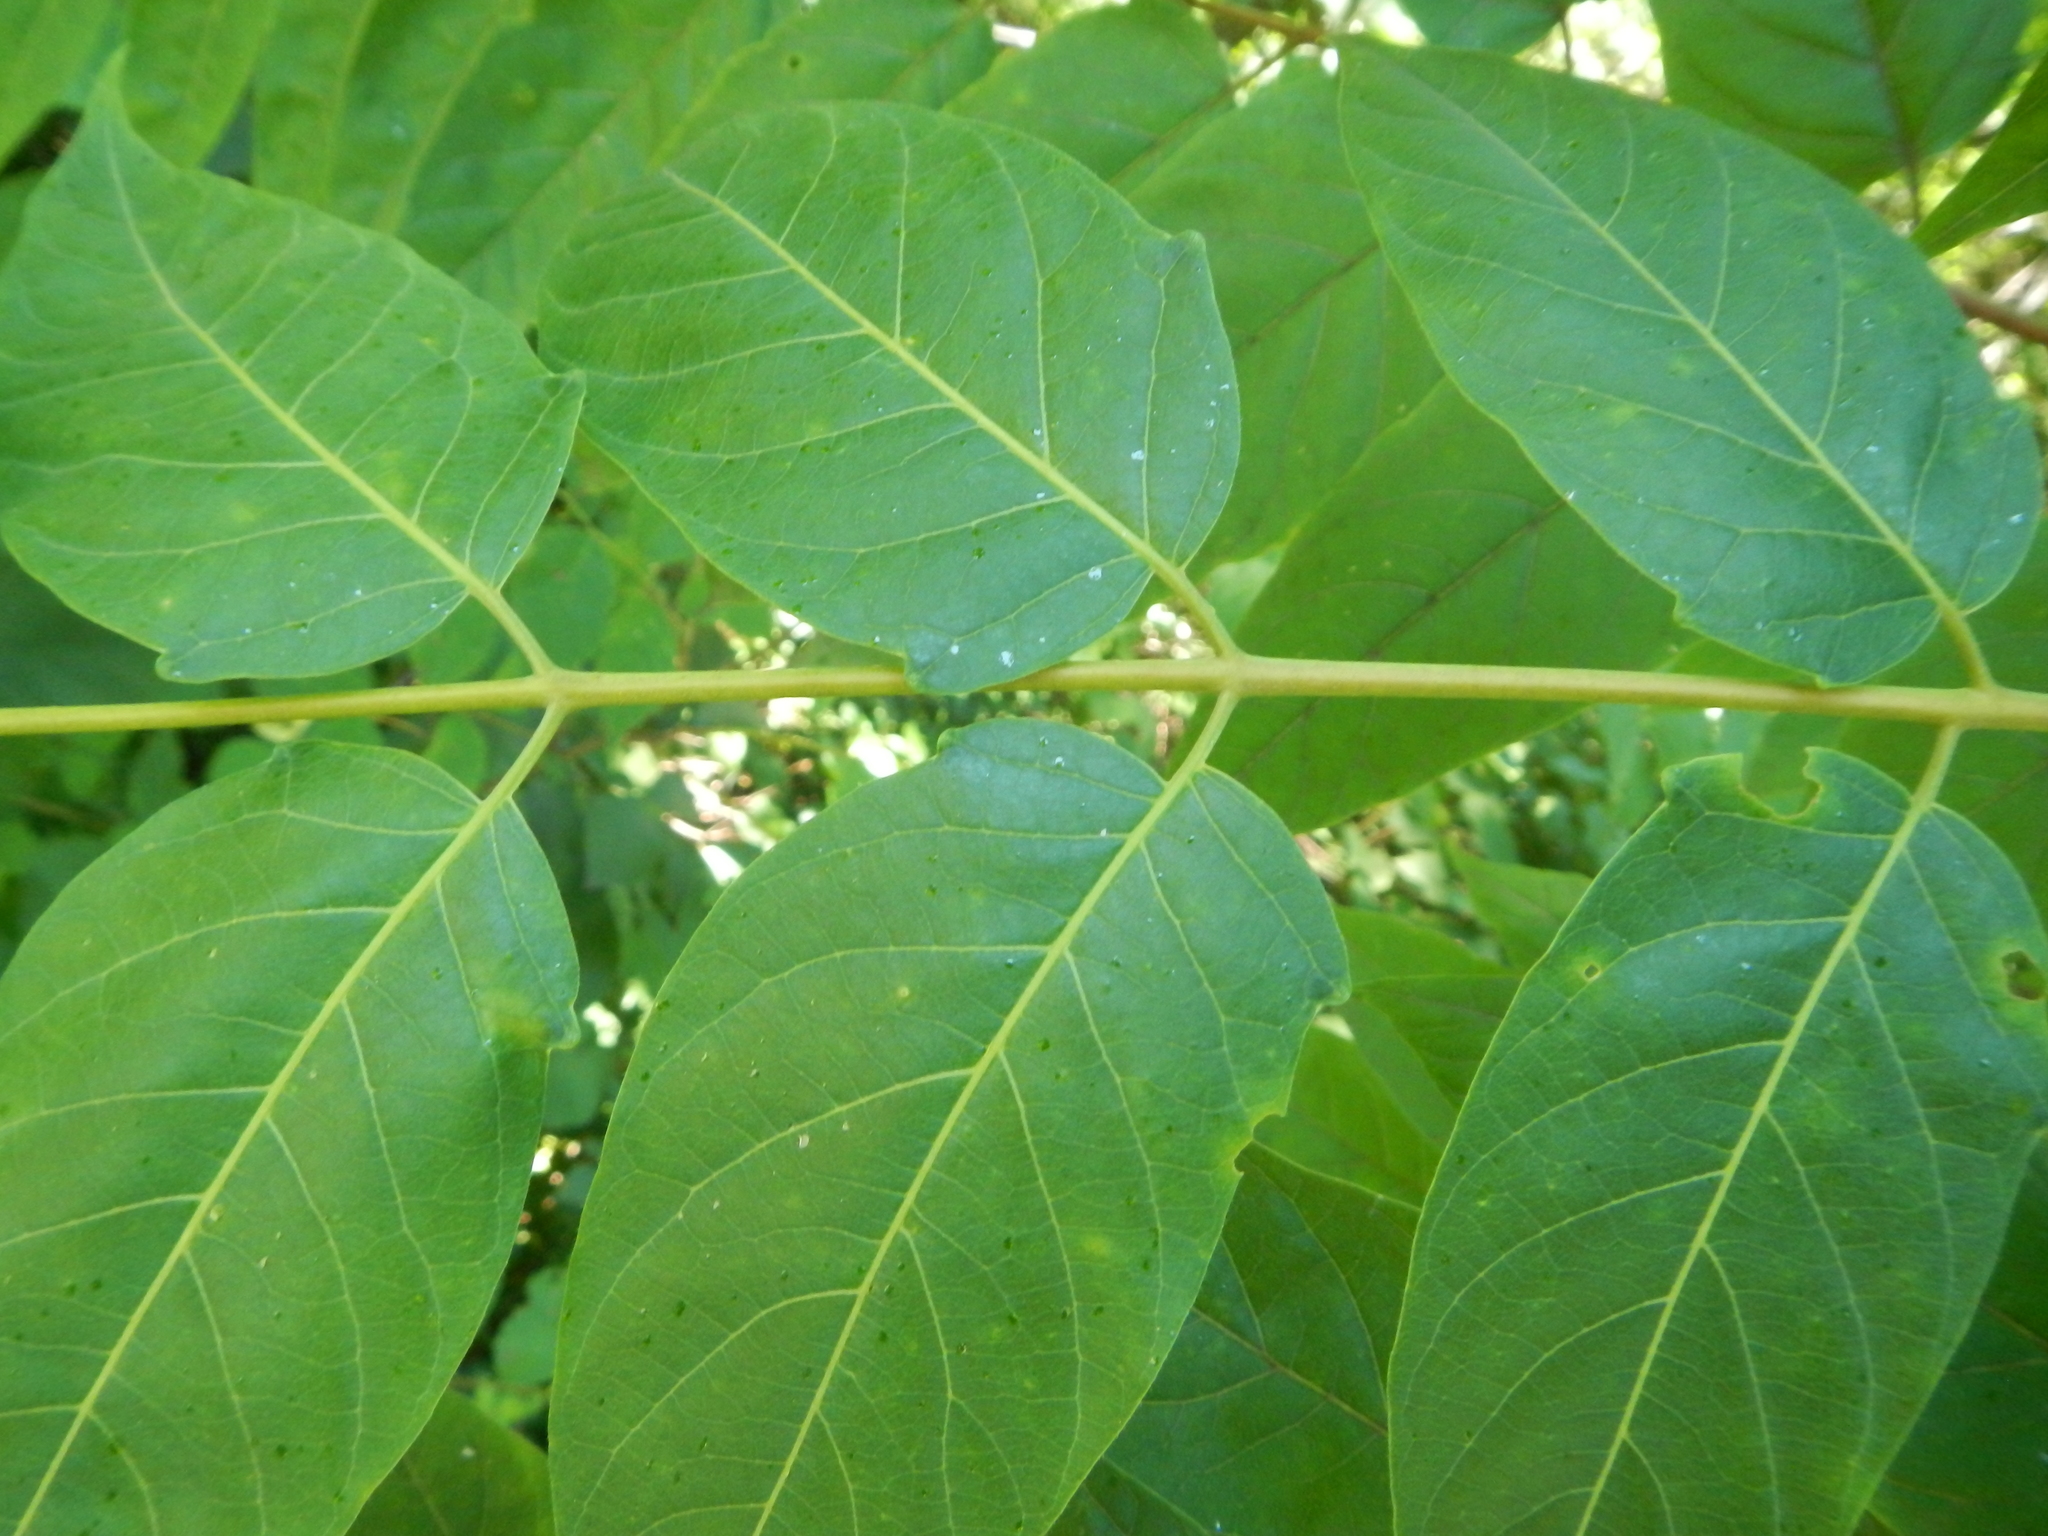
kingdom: Plantae
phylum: Tracheophyta
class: Magnoliopsida
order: Sapindales
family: Simaroubaceae
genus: Ailanthus
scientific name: Ailanthus altissima
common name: Tree-of-heaven
